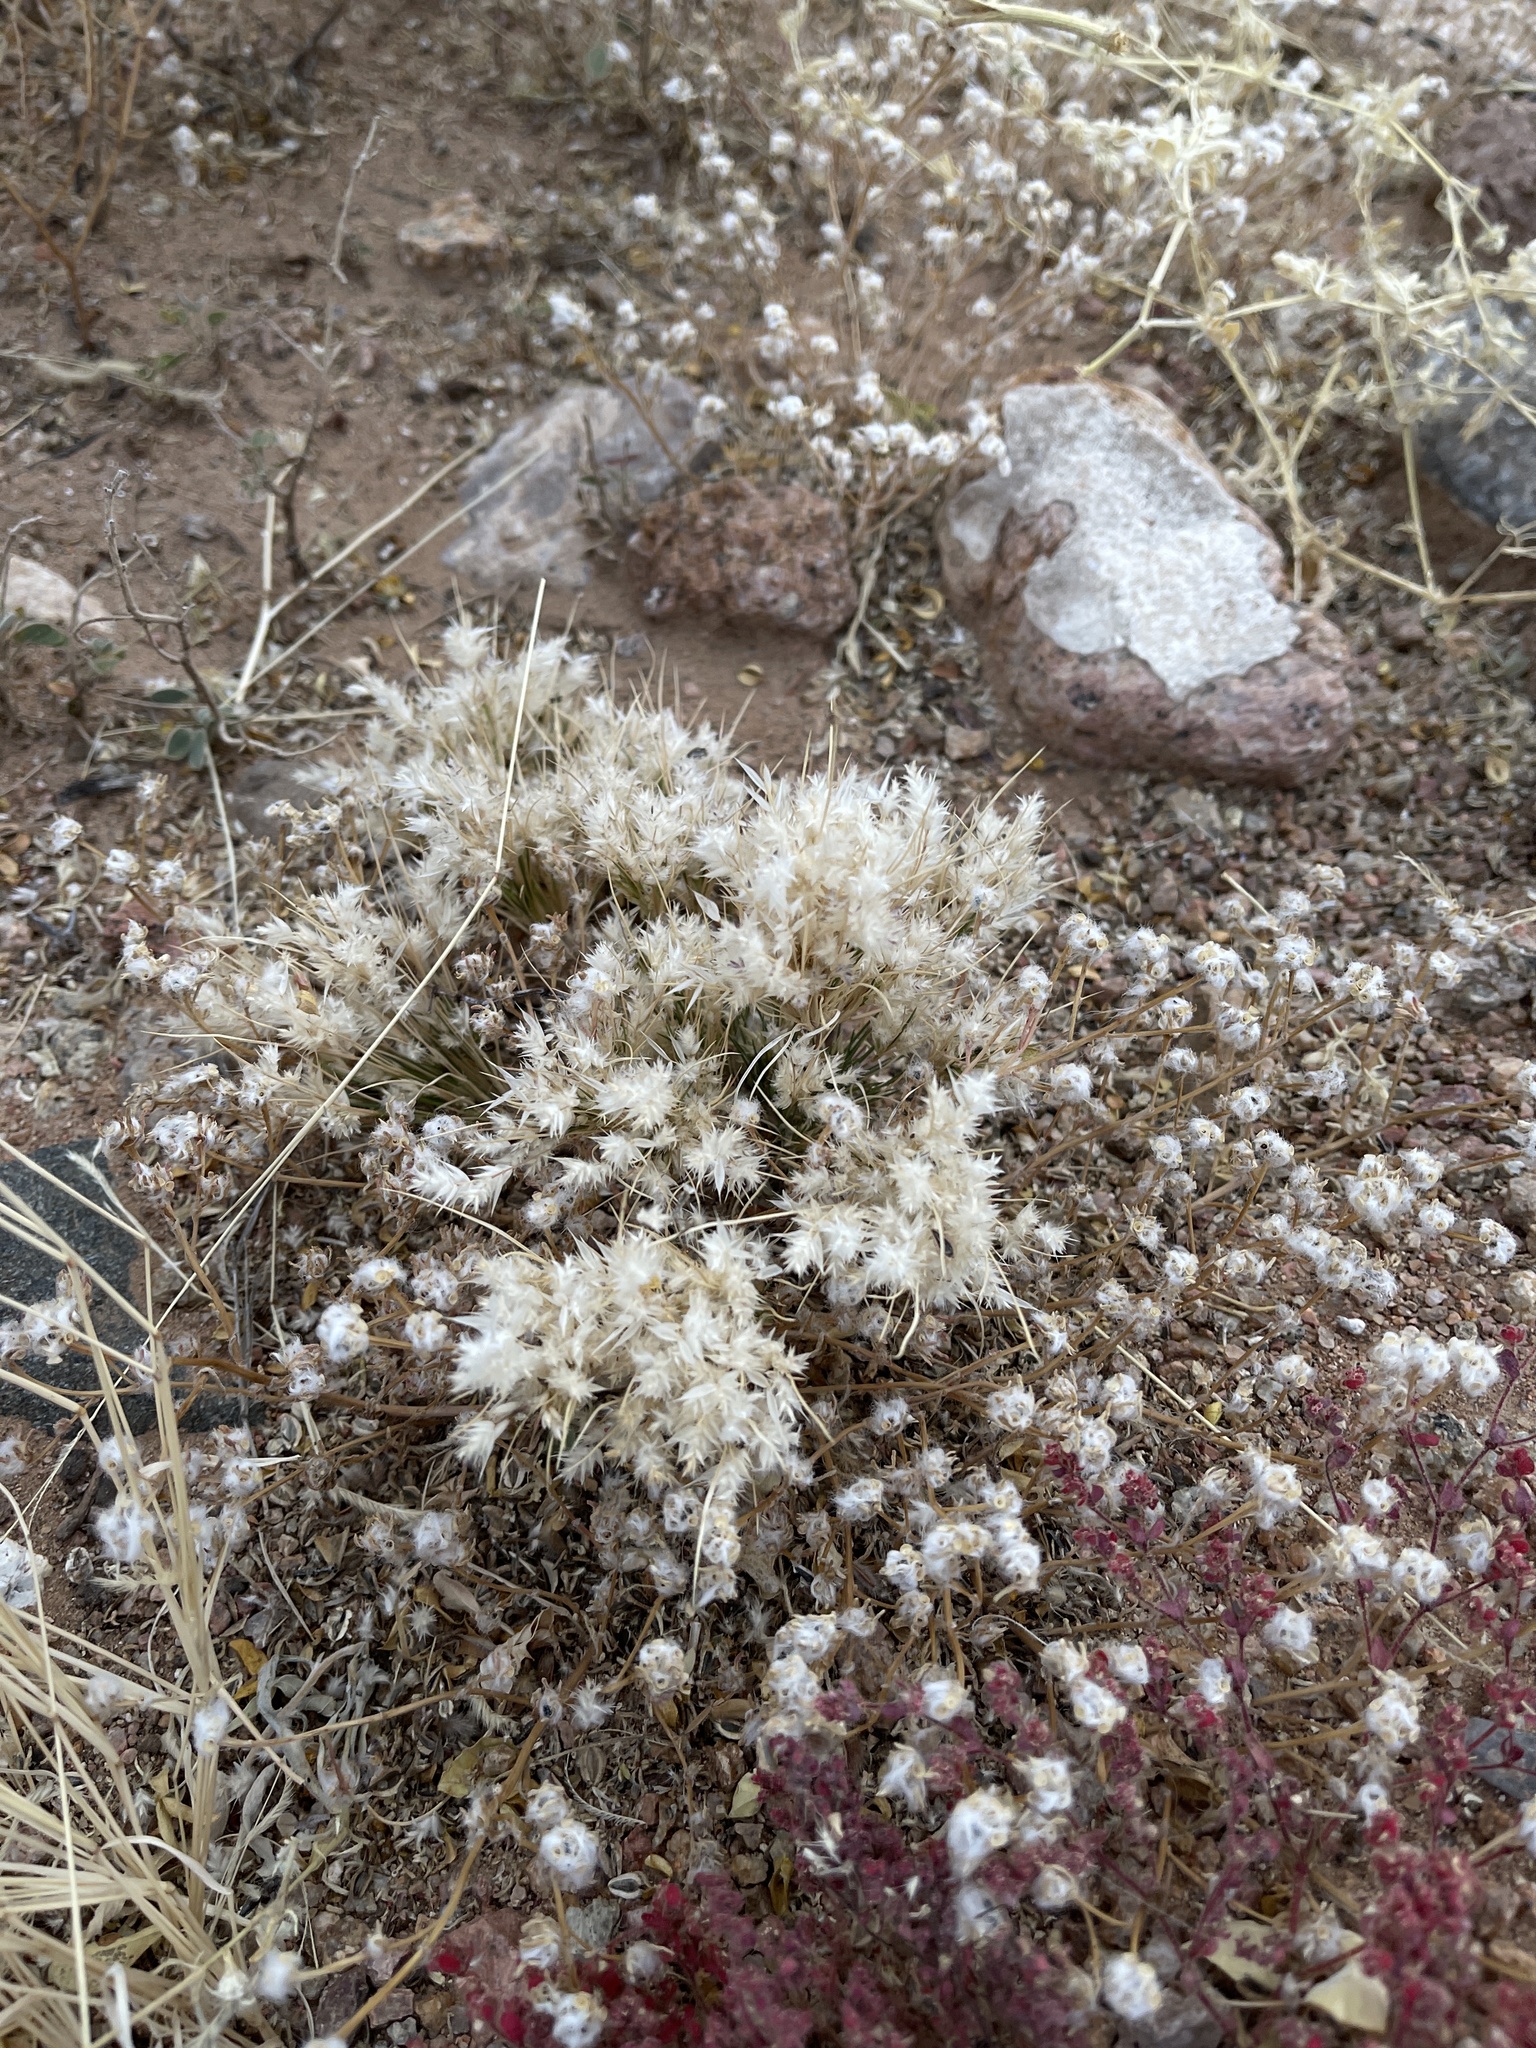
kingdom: Plantae
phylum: Tracheophyta
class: Liliopsida
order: Poales
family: Poaceae
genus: Dasyochloa
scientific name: Dasyochloa pulchella
